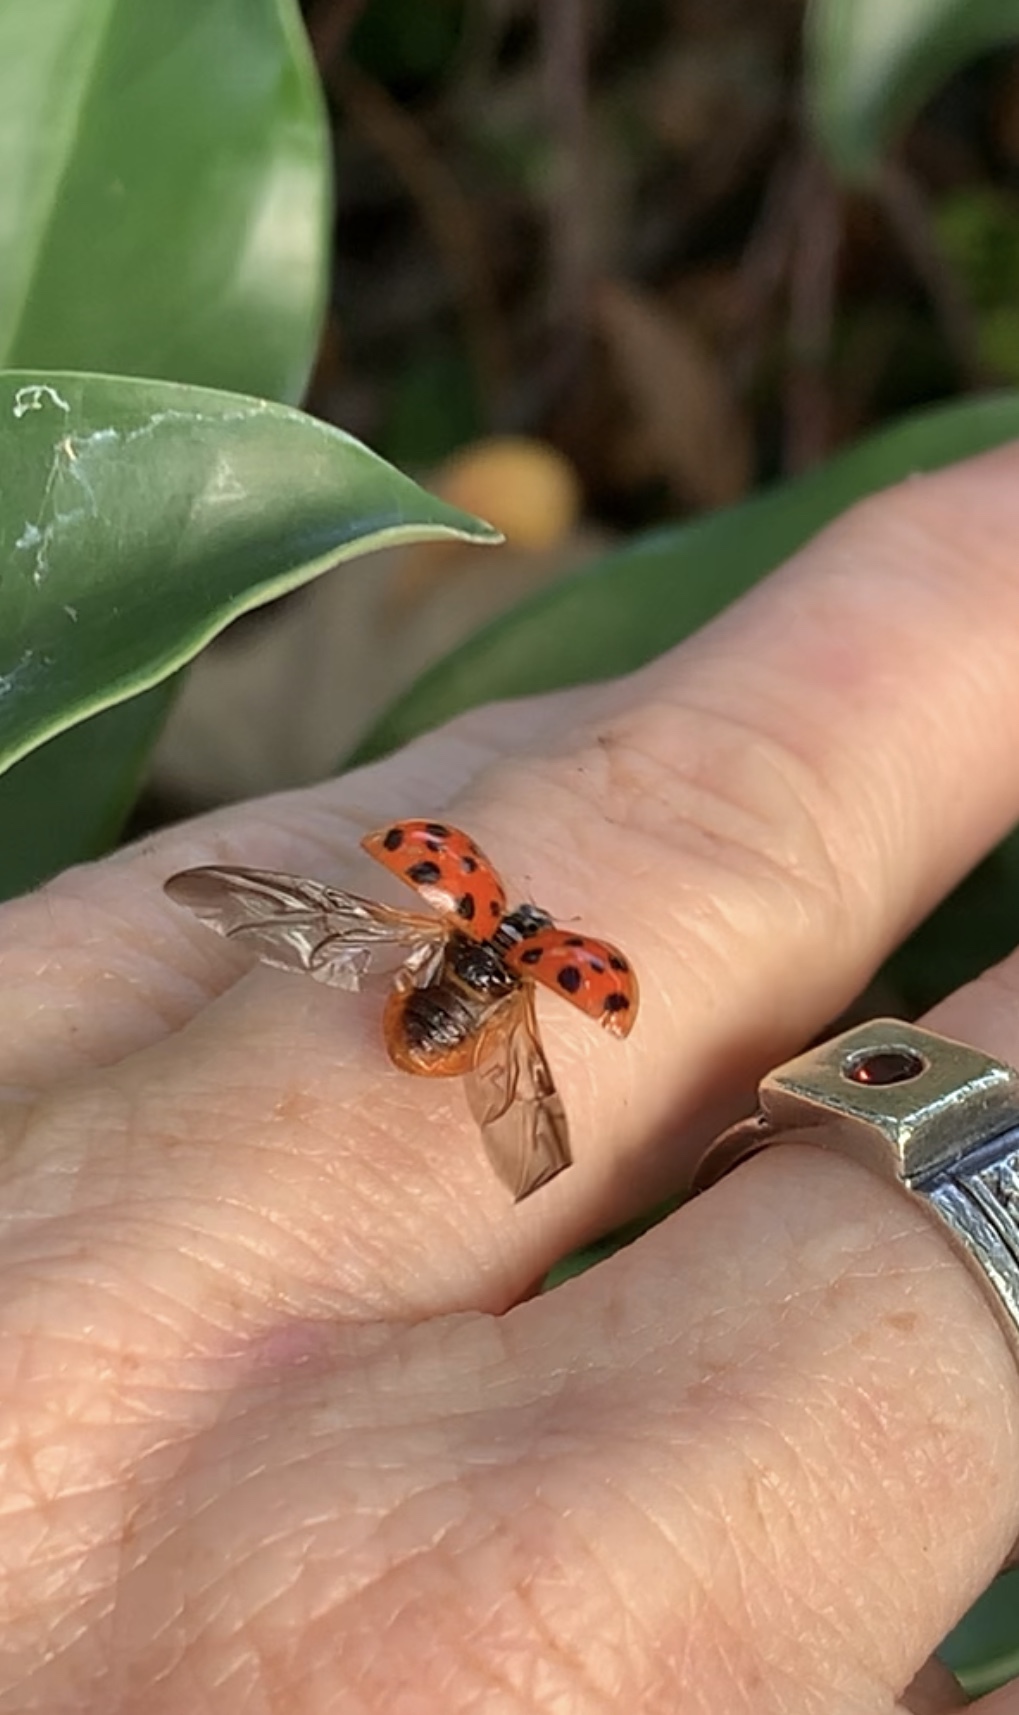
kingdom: Animalia
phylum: Arthropoda
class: Insecta
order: Coleoptera
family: Coccinellidae
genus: Harmonia
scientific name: Harmonia axyridis
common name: Harlequin ladybird
